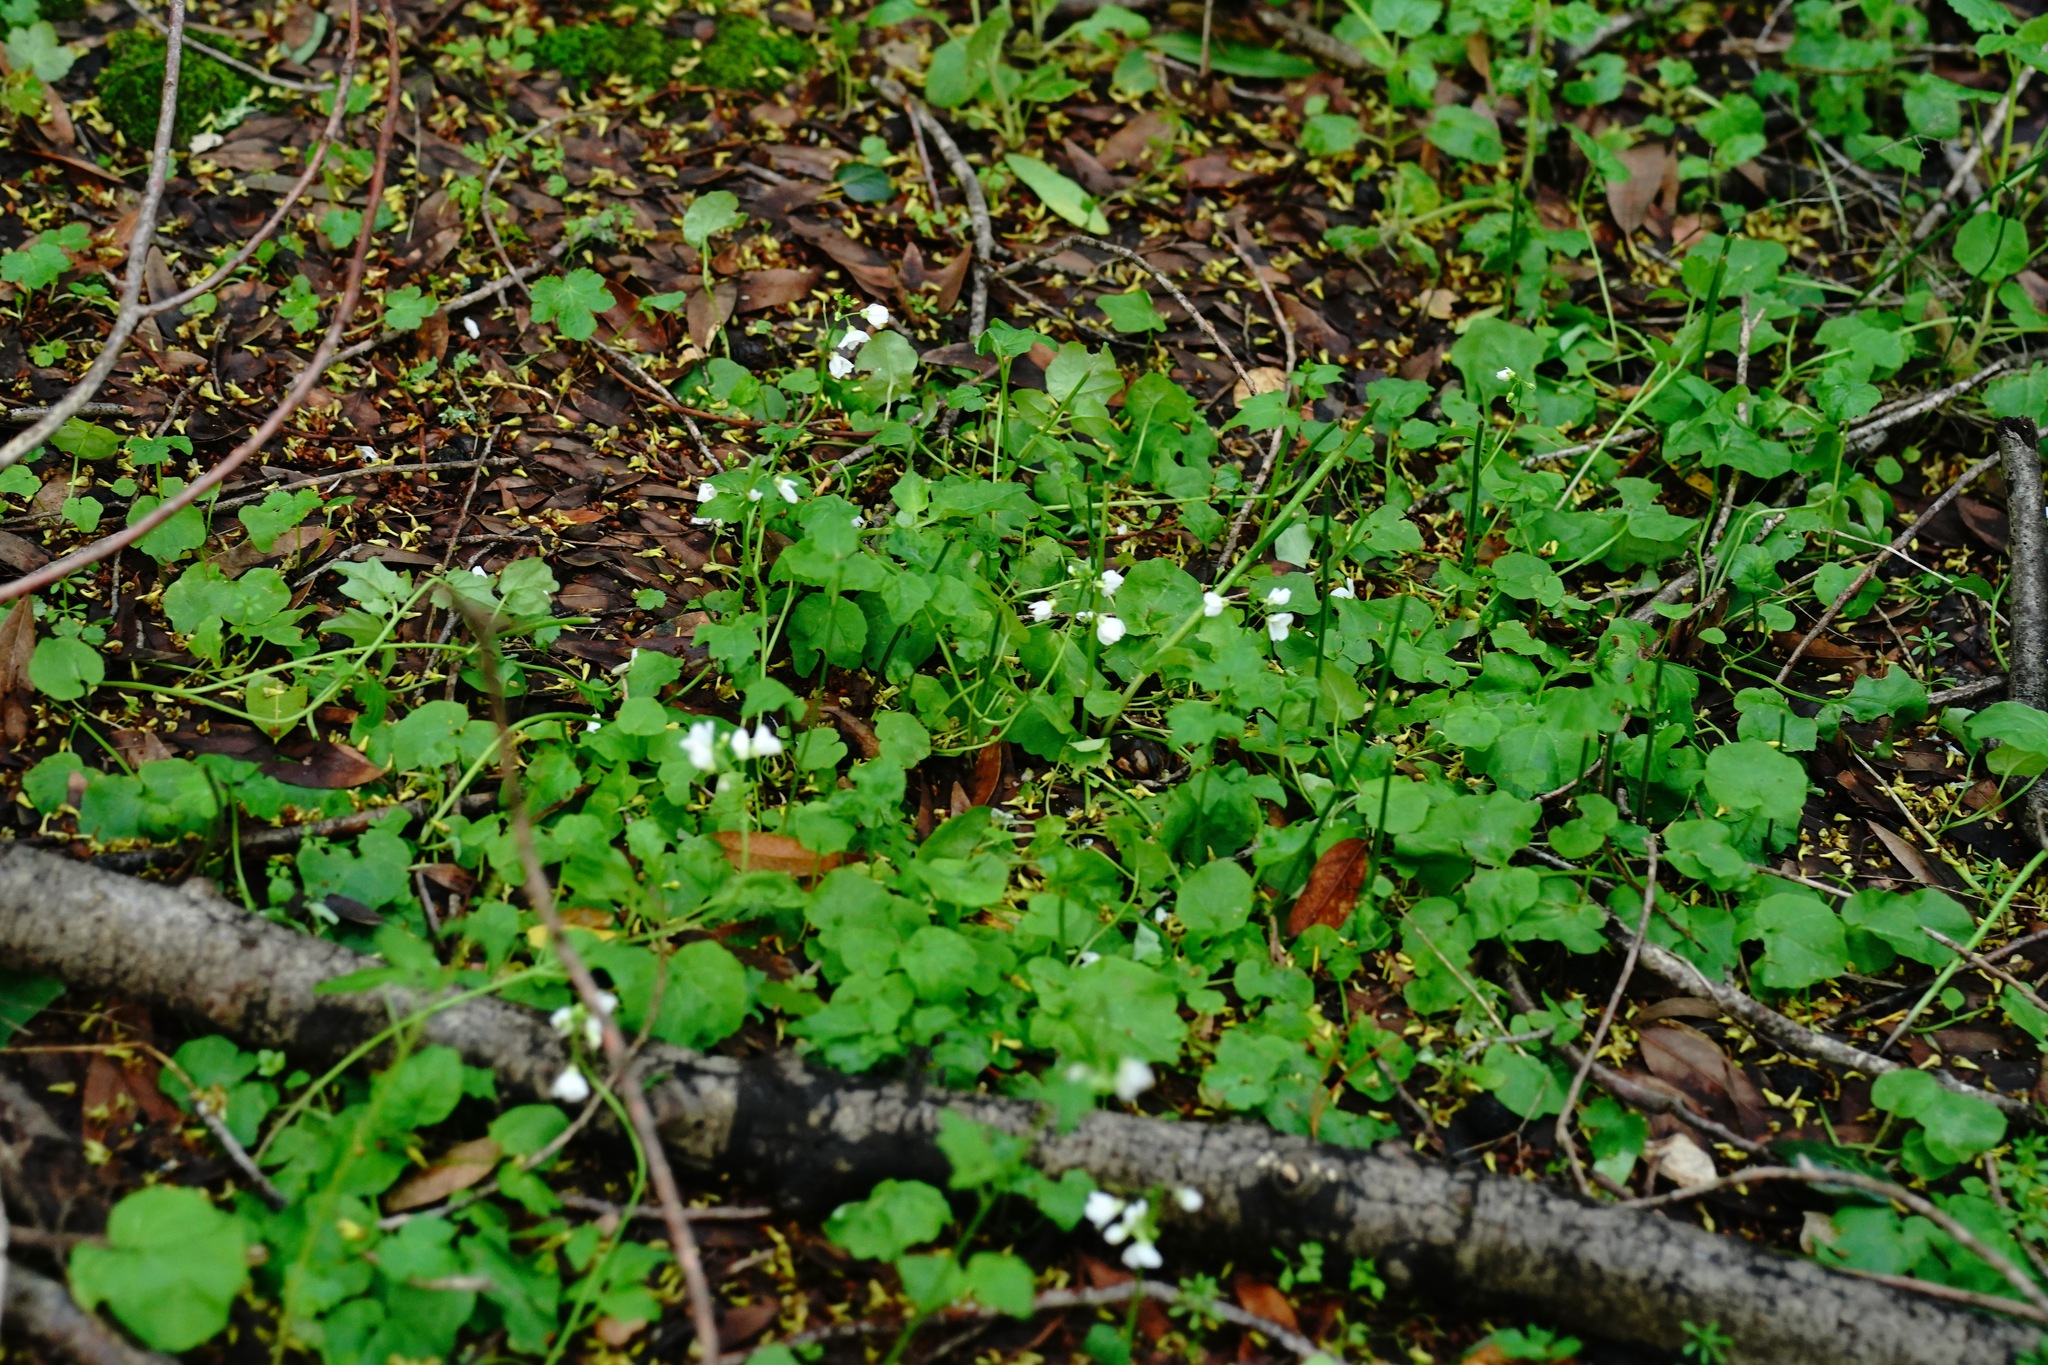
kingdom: Plantae
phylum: Tracheophyta
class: Magnoliopsida
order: Brassicales
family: Brassicaceae
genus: Cardamine
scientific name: Cardamine californica
